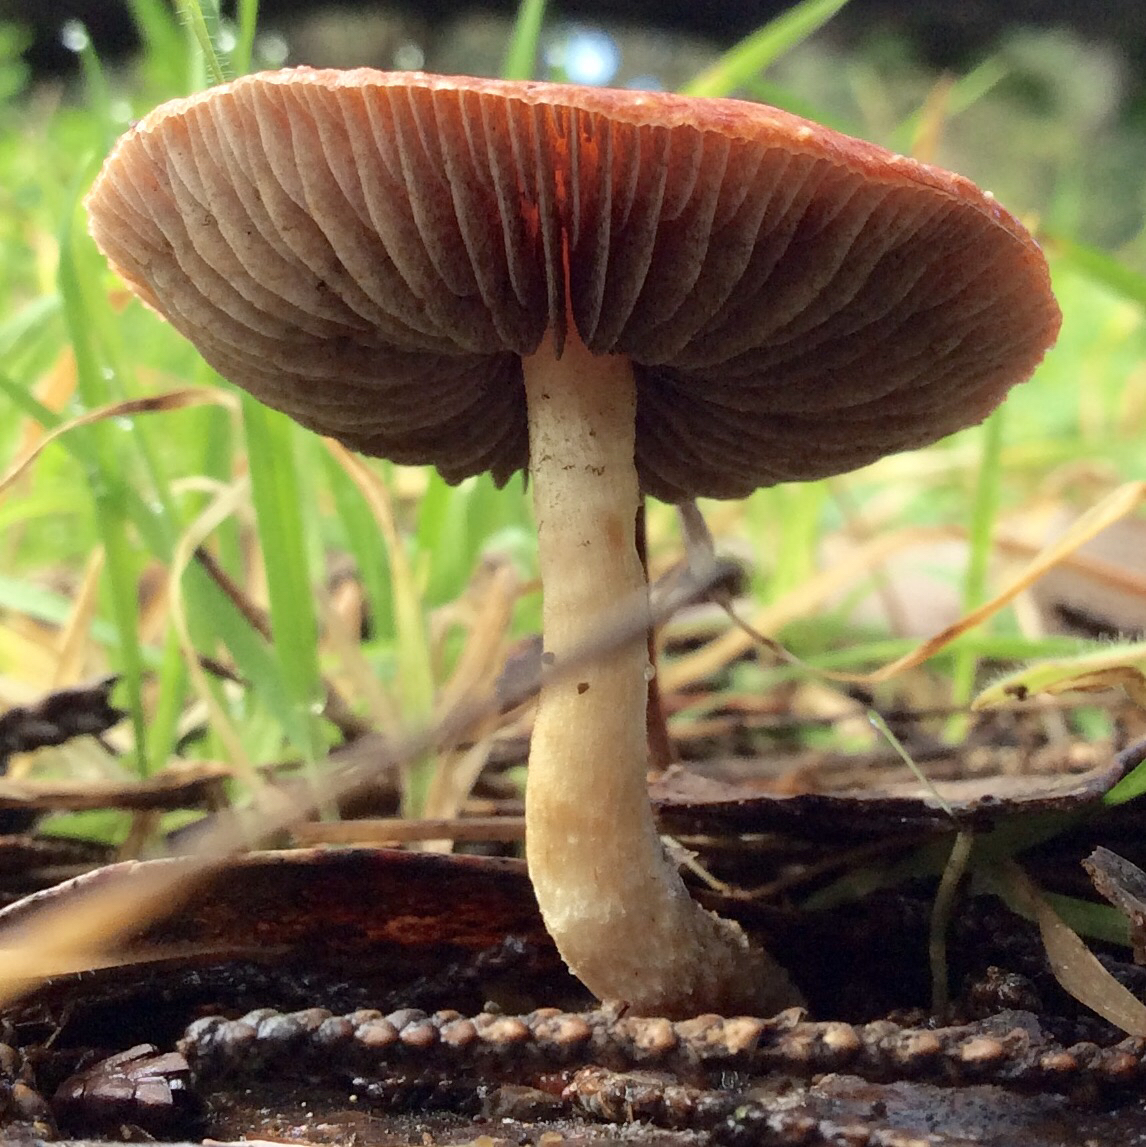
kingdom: Fungi
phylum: Basidiomycota
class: Agaricomycetes
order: Agaricales
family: Strophariaceae
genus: Leratiomyces
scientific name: Leratiomyces ceres
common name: Redlead roundhead
